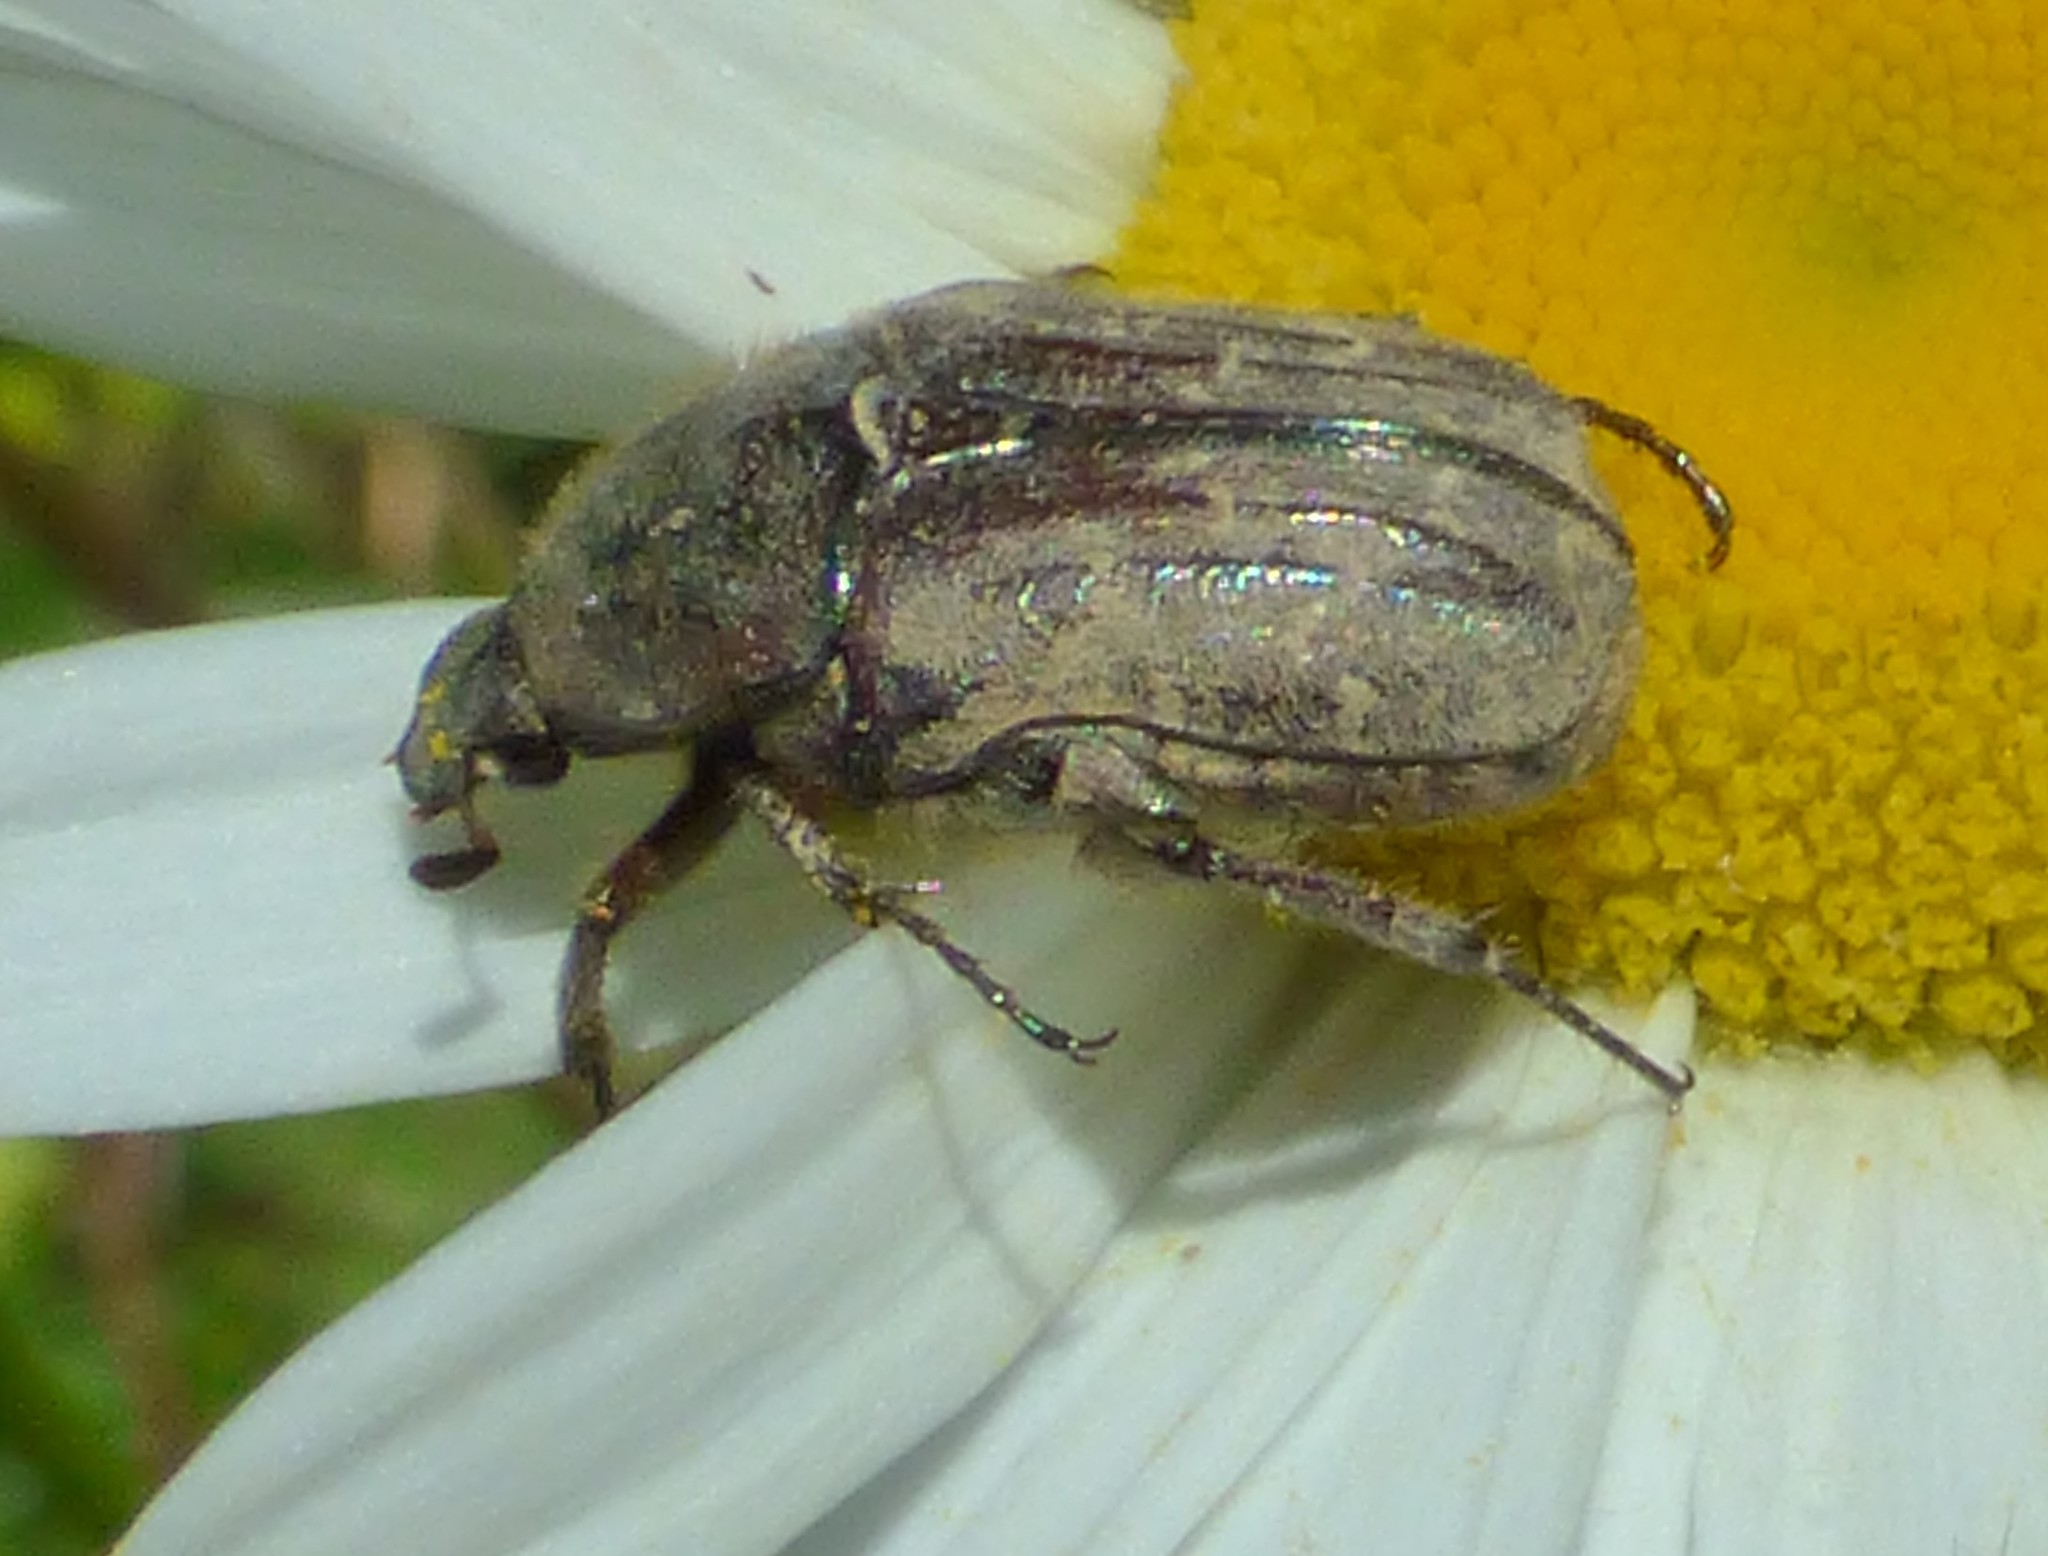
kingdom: Animalia
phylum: Arthropoda
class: Insecta
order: Coleoptera
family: Scarabaeidae
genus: Euphoria
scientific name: Euphoria sepulcralis
